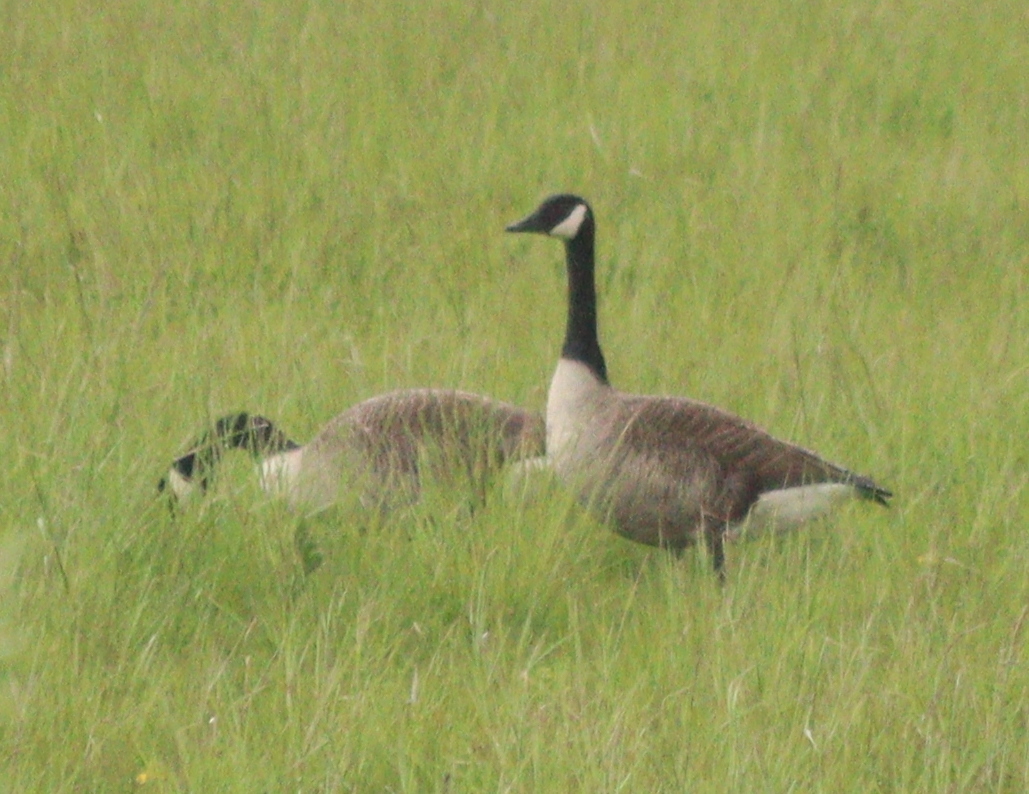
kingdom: Animalia
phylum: Chordata
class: Aves
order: Anseriformes
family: Anatidae
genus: Branta
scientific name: Branta canadensis
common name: Canada goose
